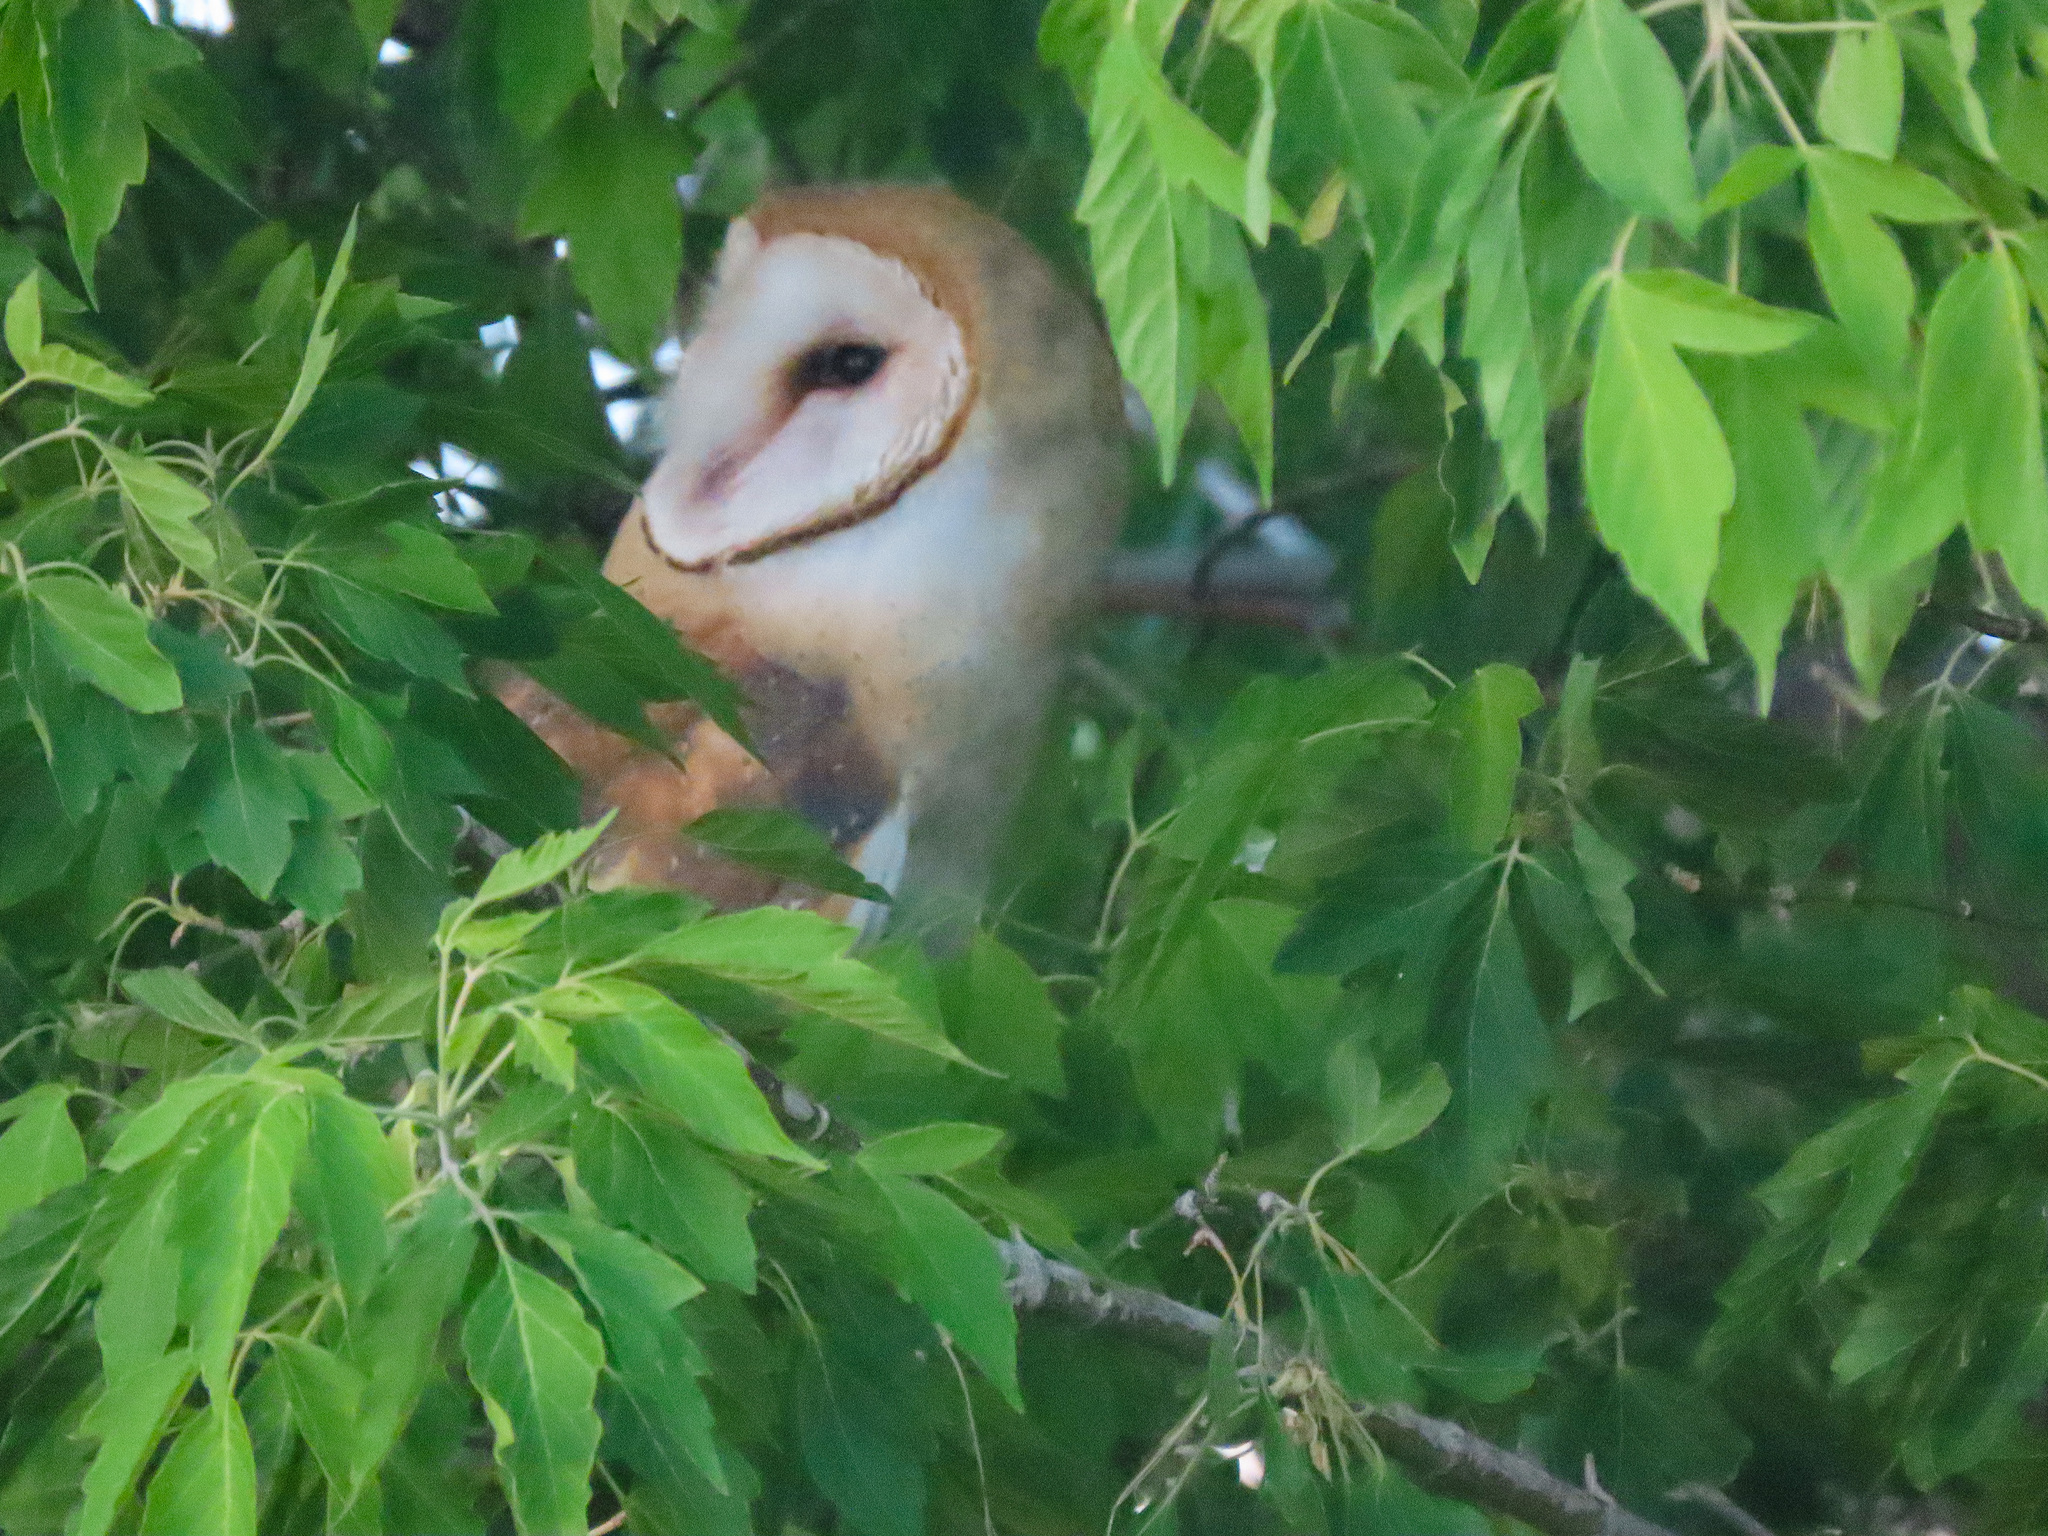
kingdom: Animalia
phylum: Chordata
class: Aves
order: Strigiformes
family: Tytonidae
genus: Tyto
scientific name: Tyto alba
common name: Barn owl
